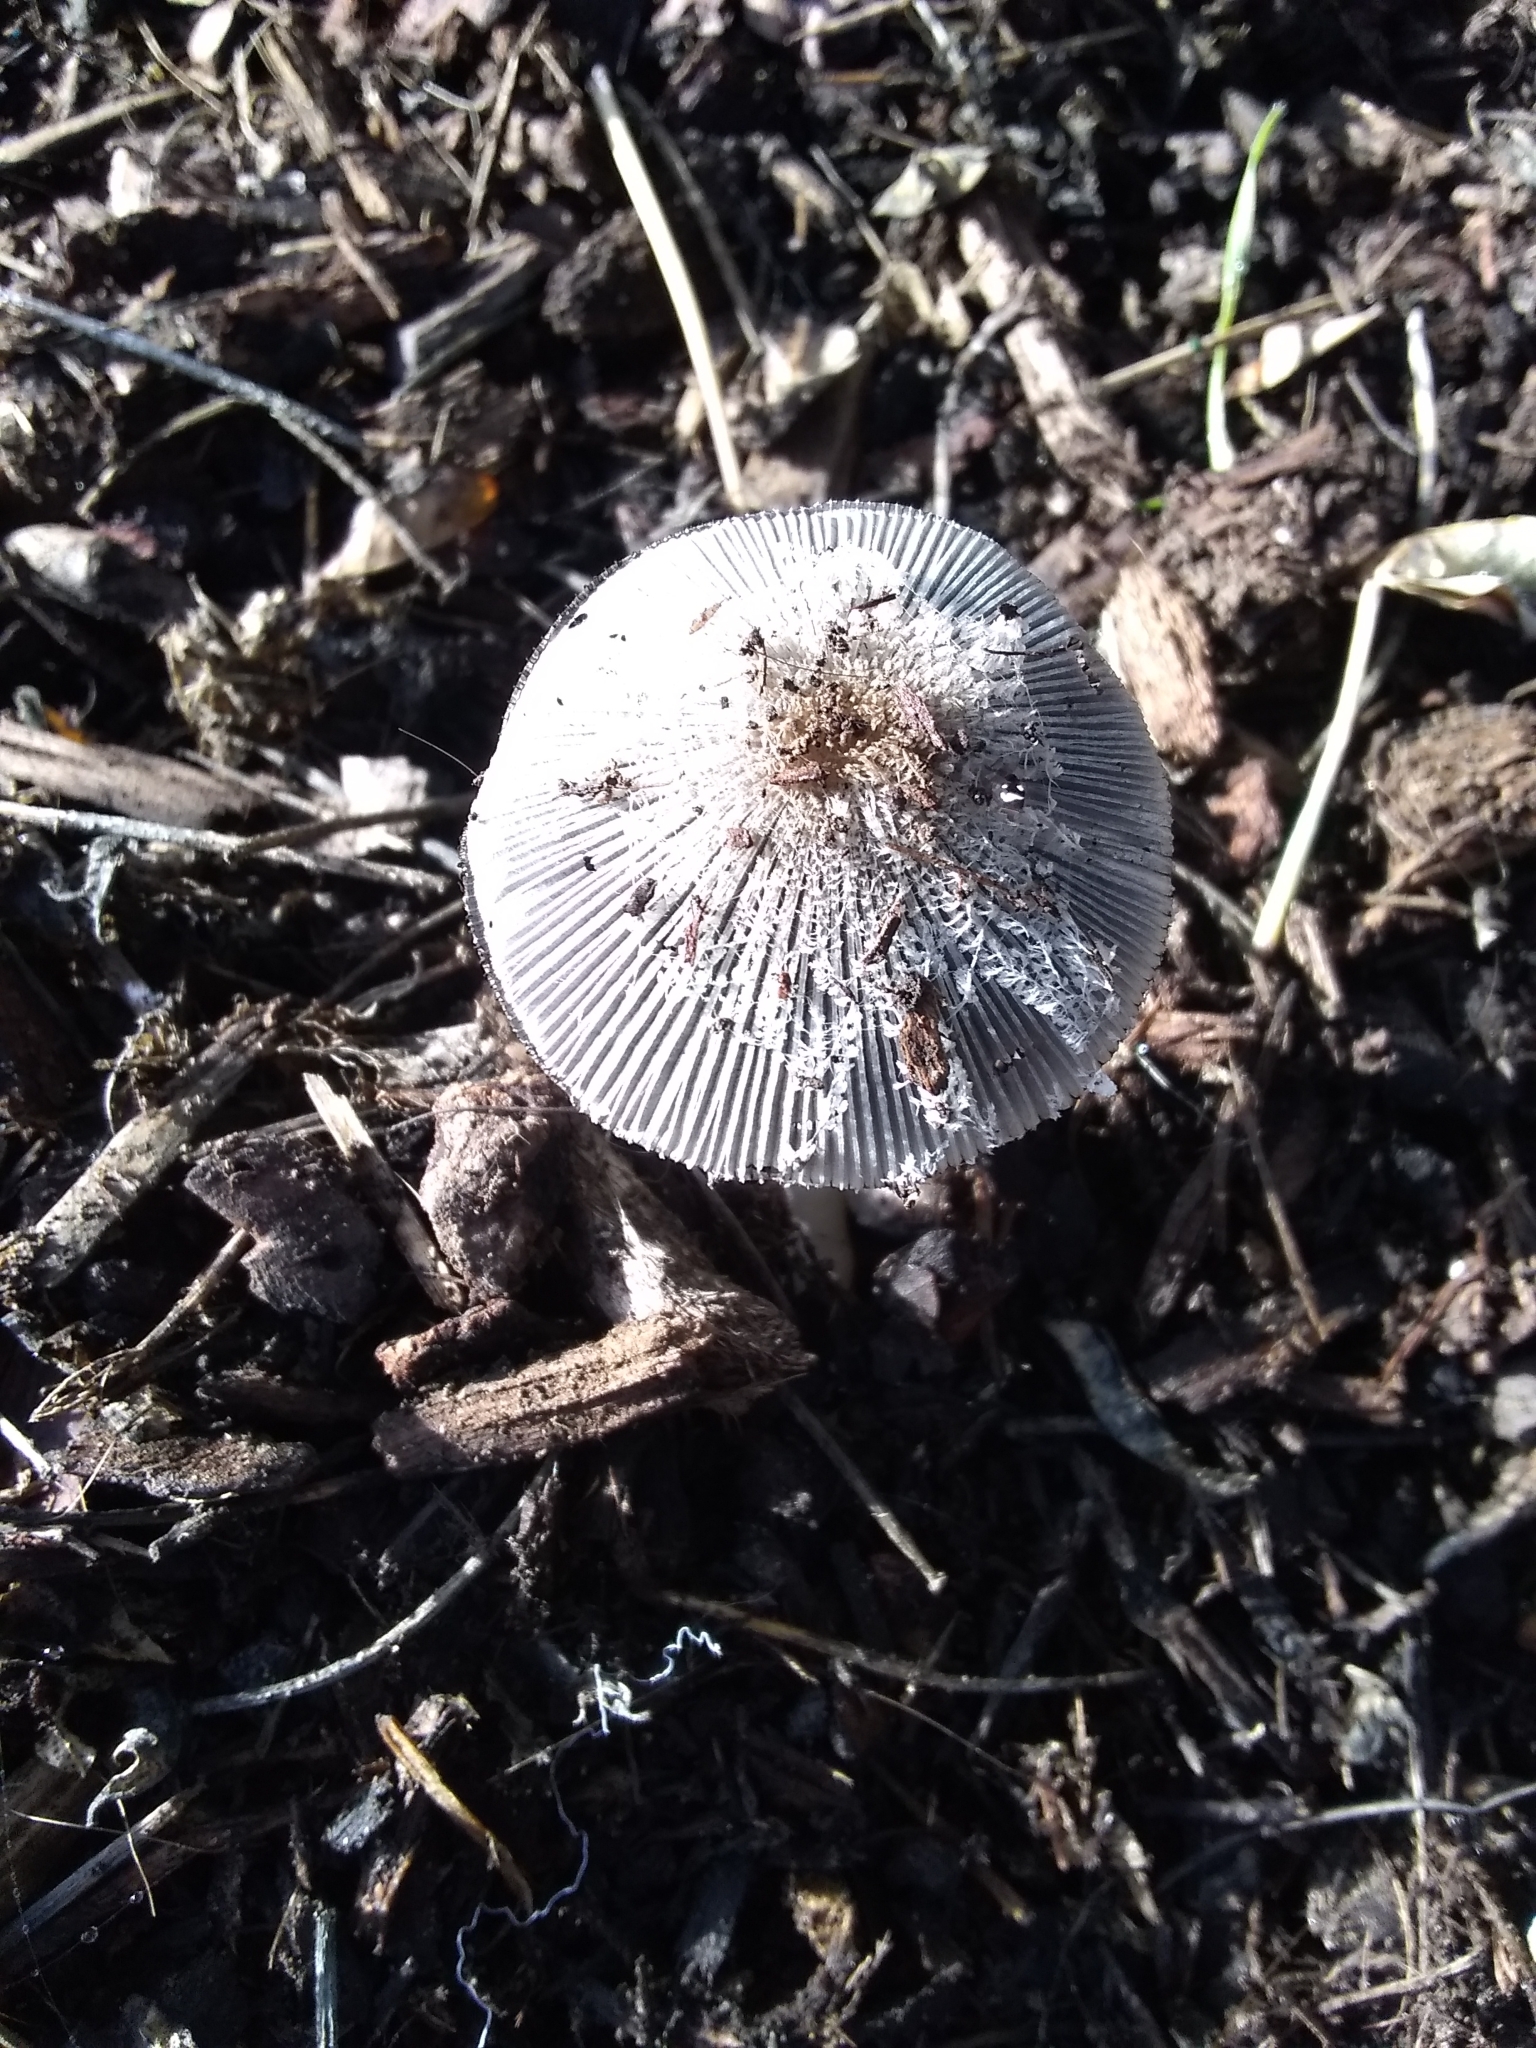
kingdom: Fungi
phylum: Basidiomycota
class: Agaricomycetes
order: Agaricales
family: Psathyrellaceae
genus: Coprinopsis
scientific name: Coprinopsis lagopus
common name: Hare'sfoot inkcap
